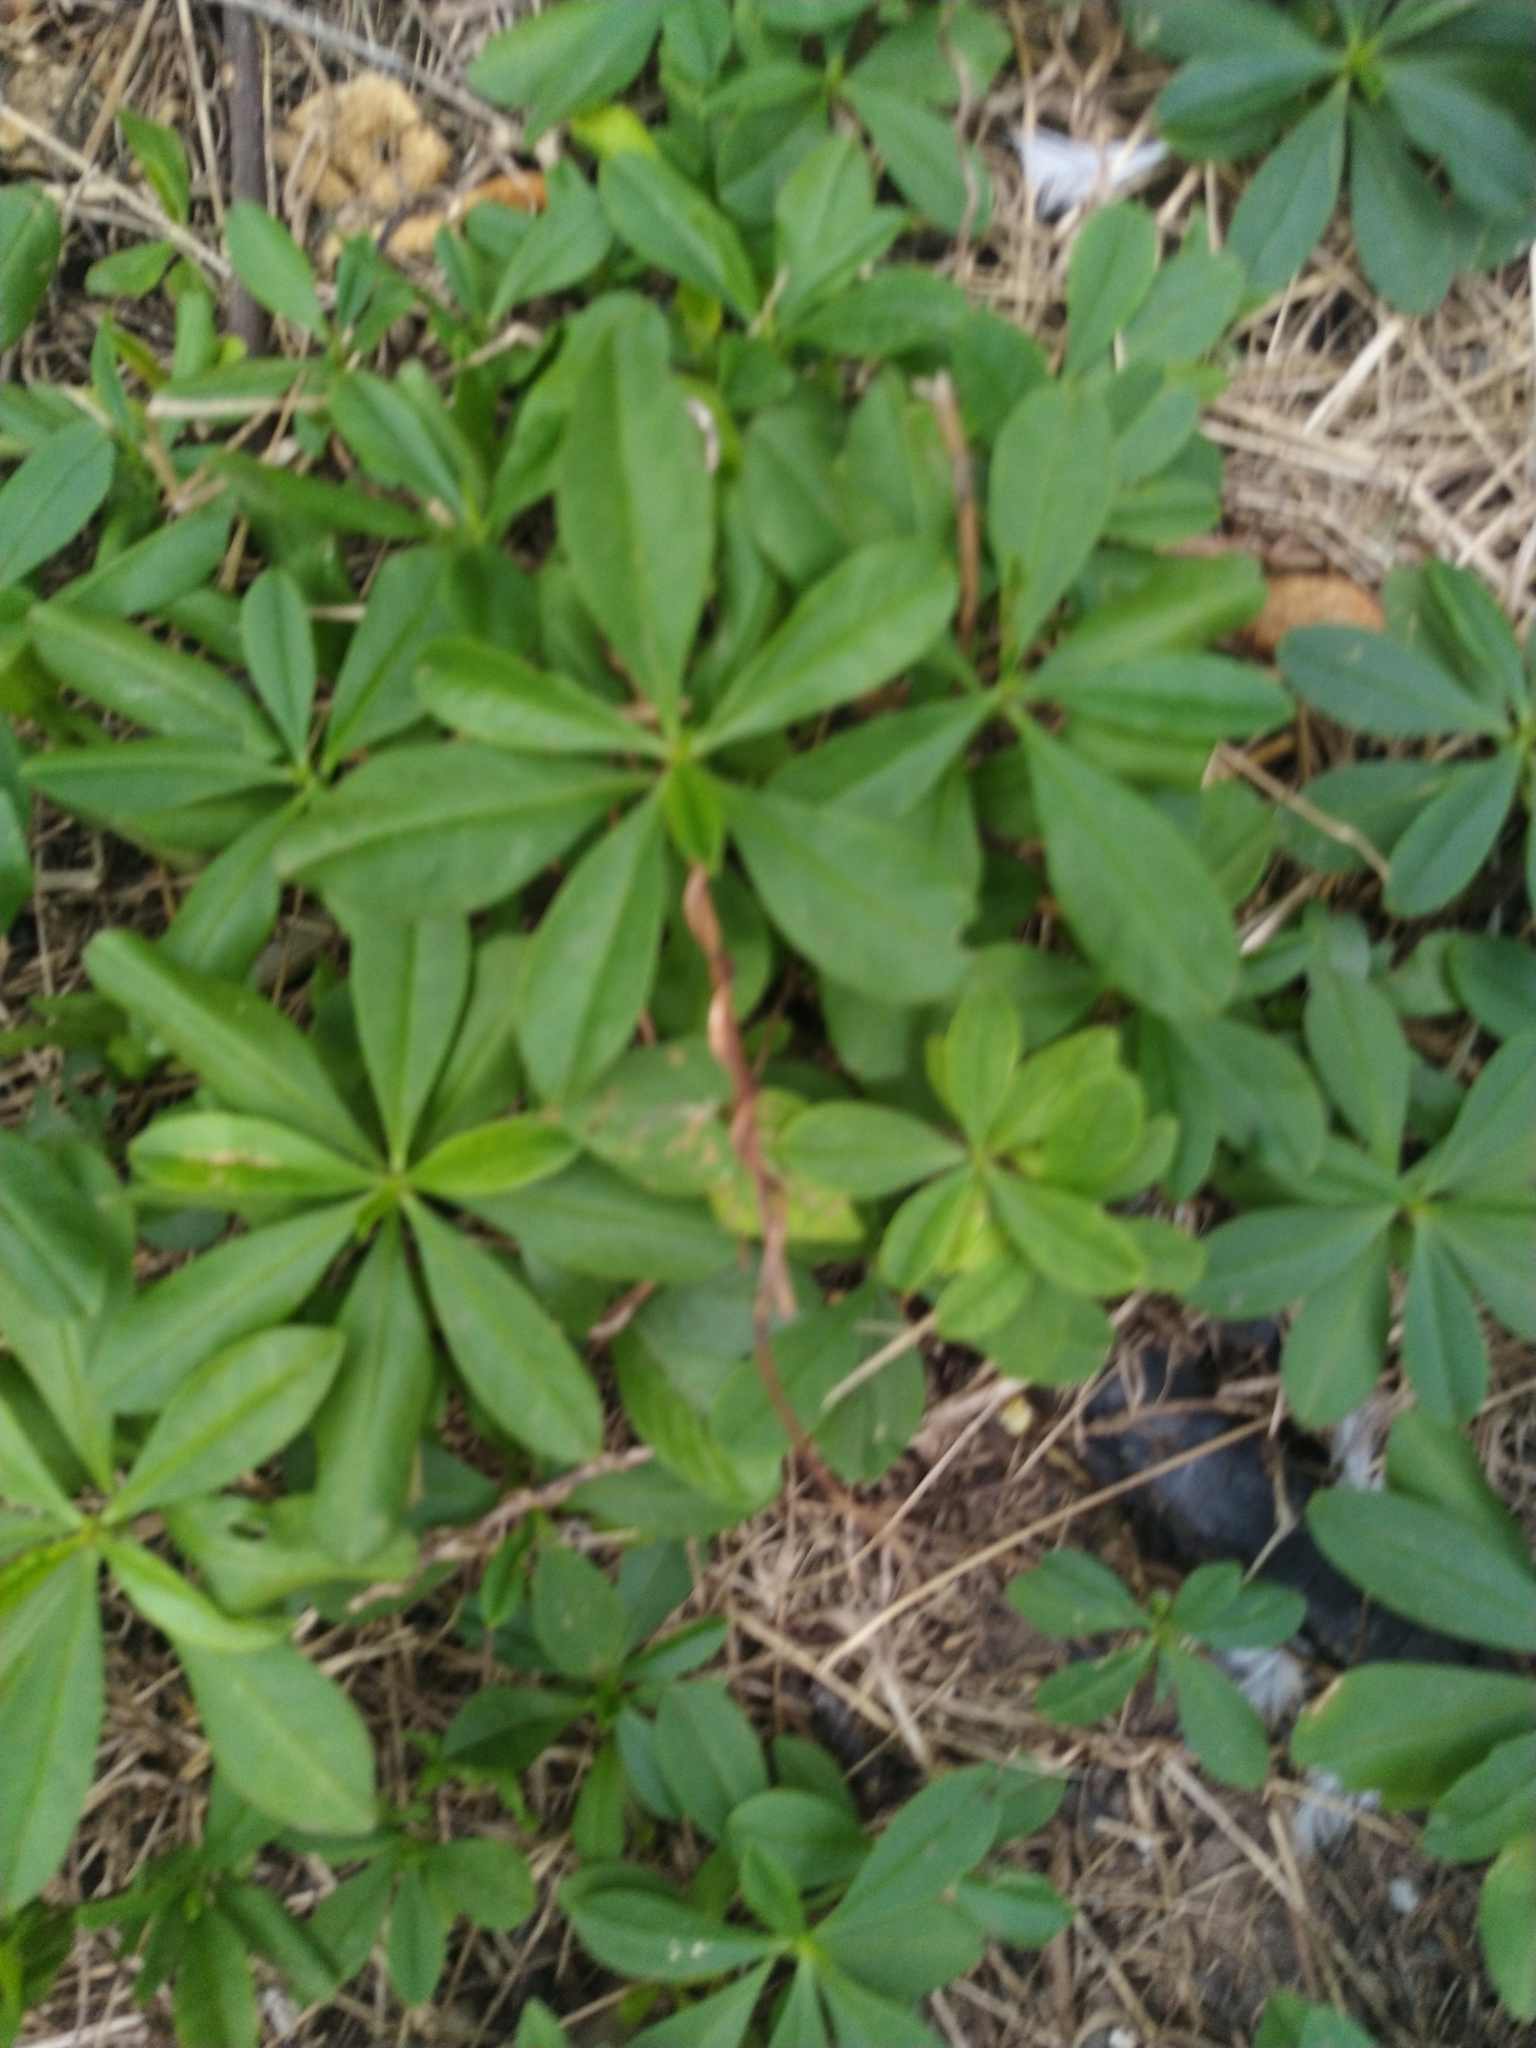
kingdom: Plantae
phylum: Tracheophyta
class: Magnoliopsida
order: Caryophyllales
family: Talinaceae
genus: Talinum
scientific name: Talinum fruticosum
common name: Verdolaga-francesa
